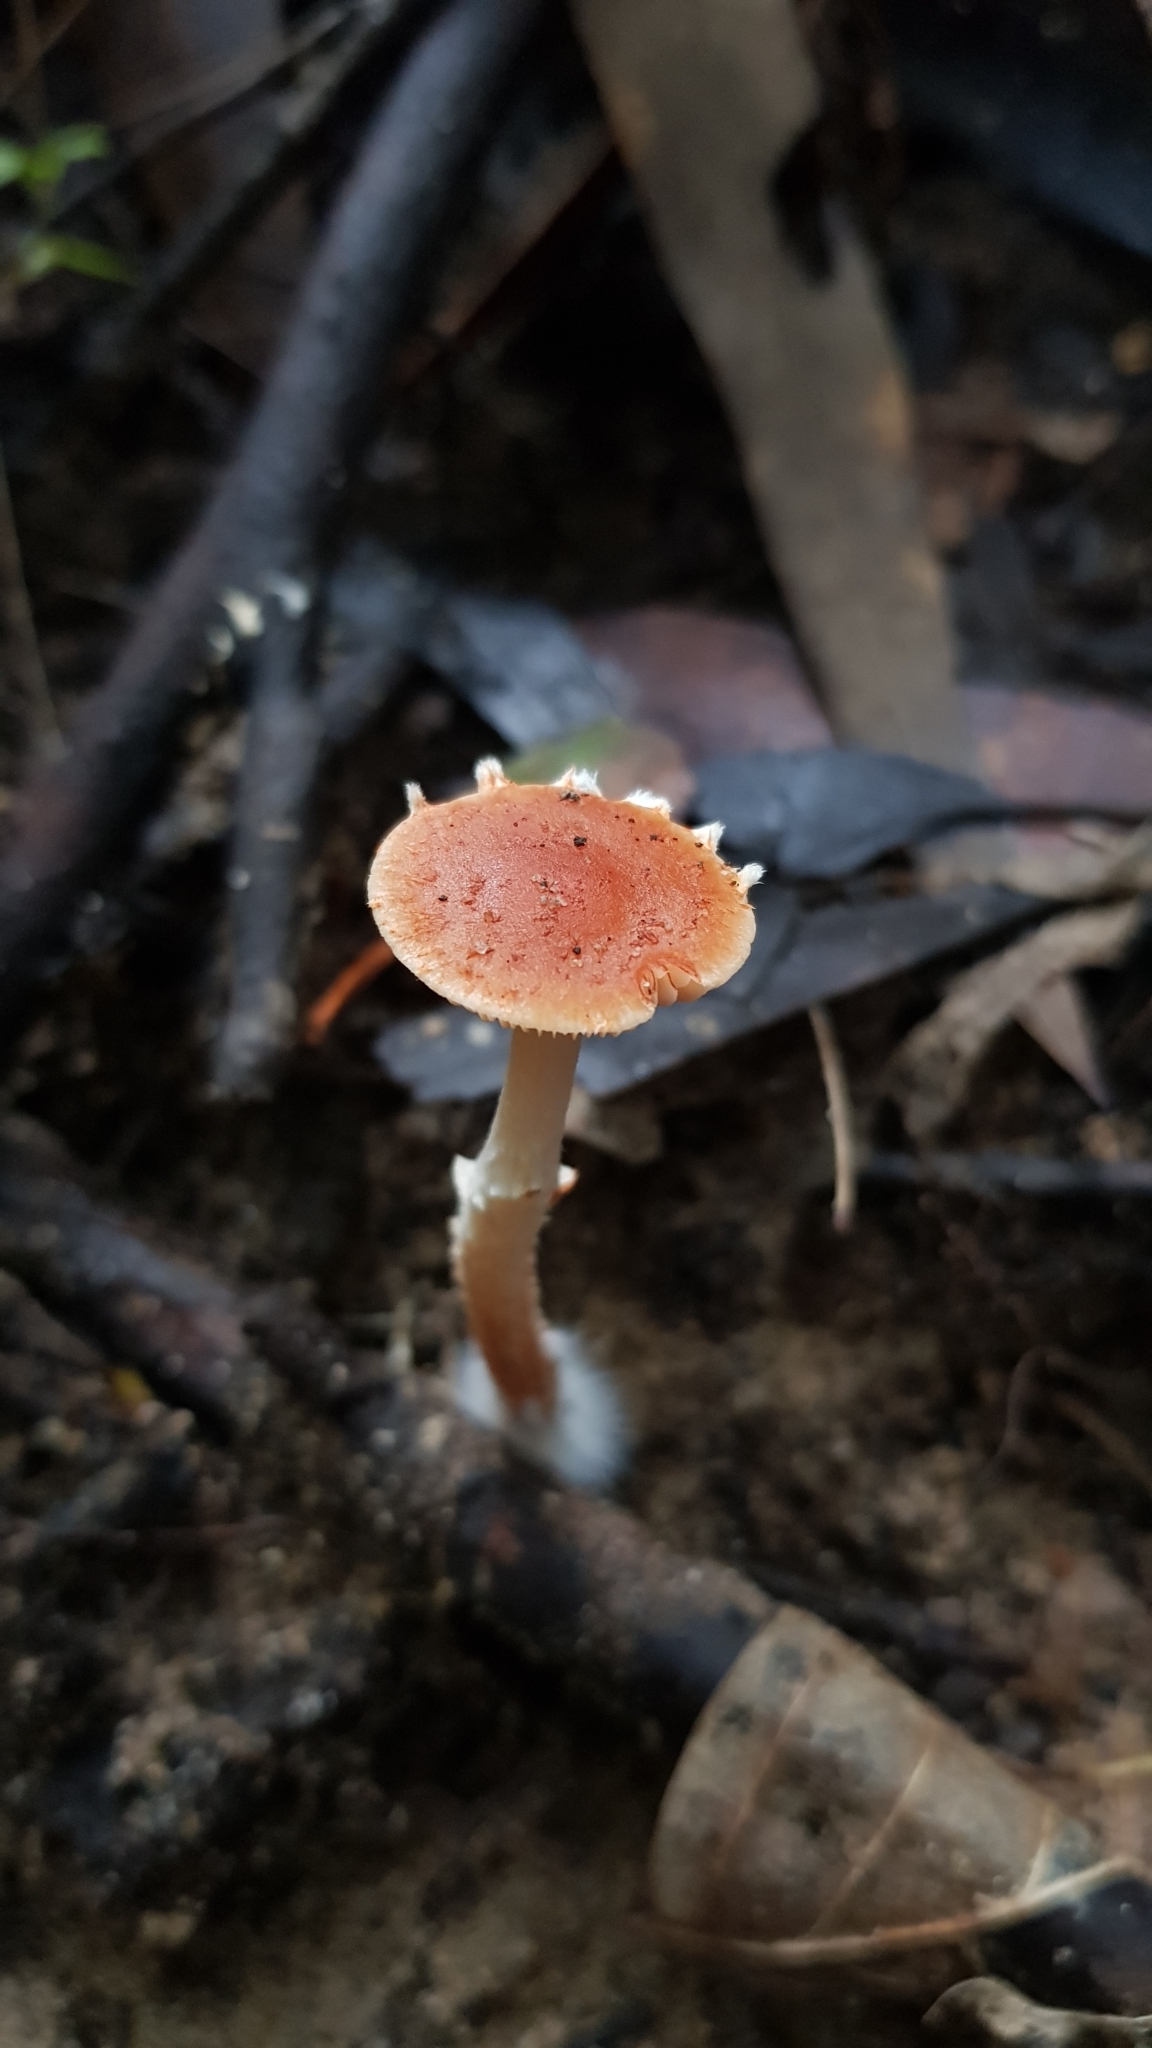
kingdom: Fungi
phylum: Basidiomycota
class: Agaricomycetes
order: Agaricales
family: Strophariaceae
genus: Leratiomyces
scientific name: Leratiomyces ceres
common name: Redlead roundhead
